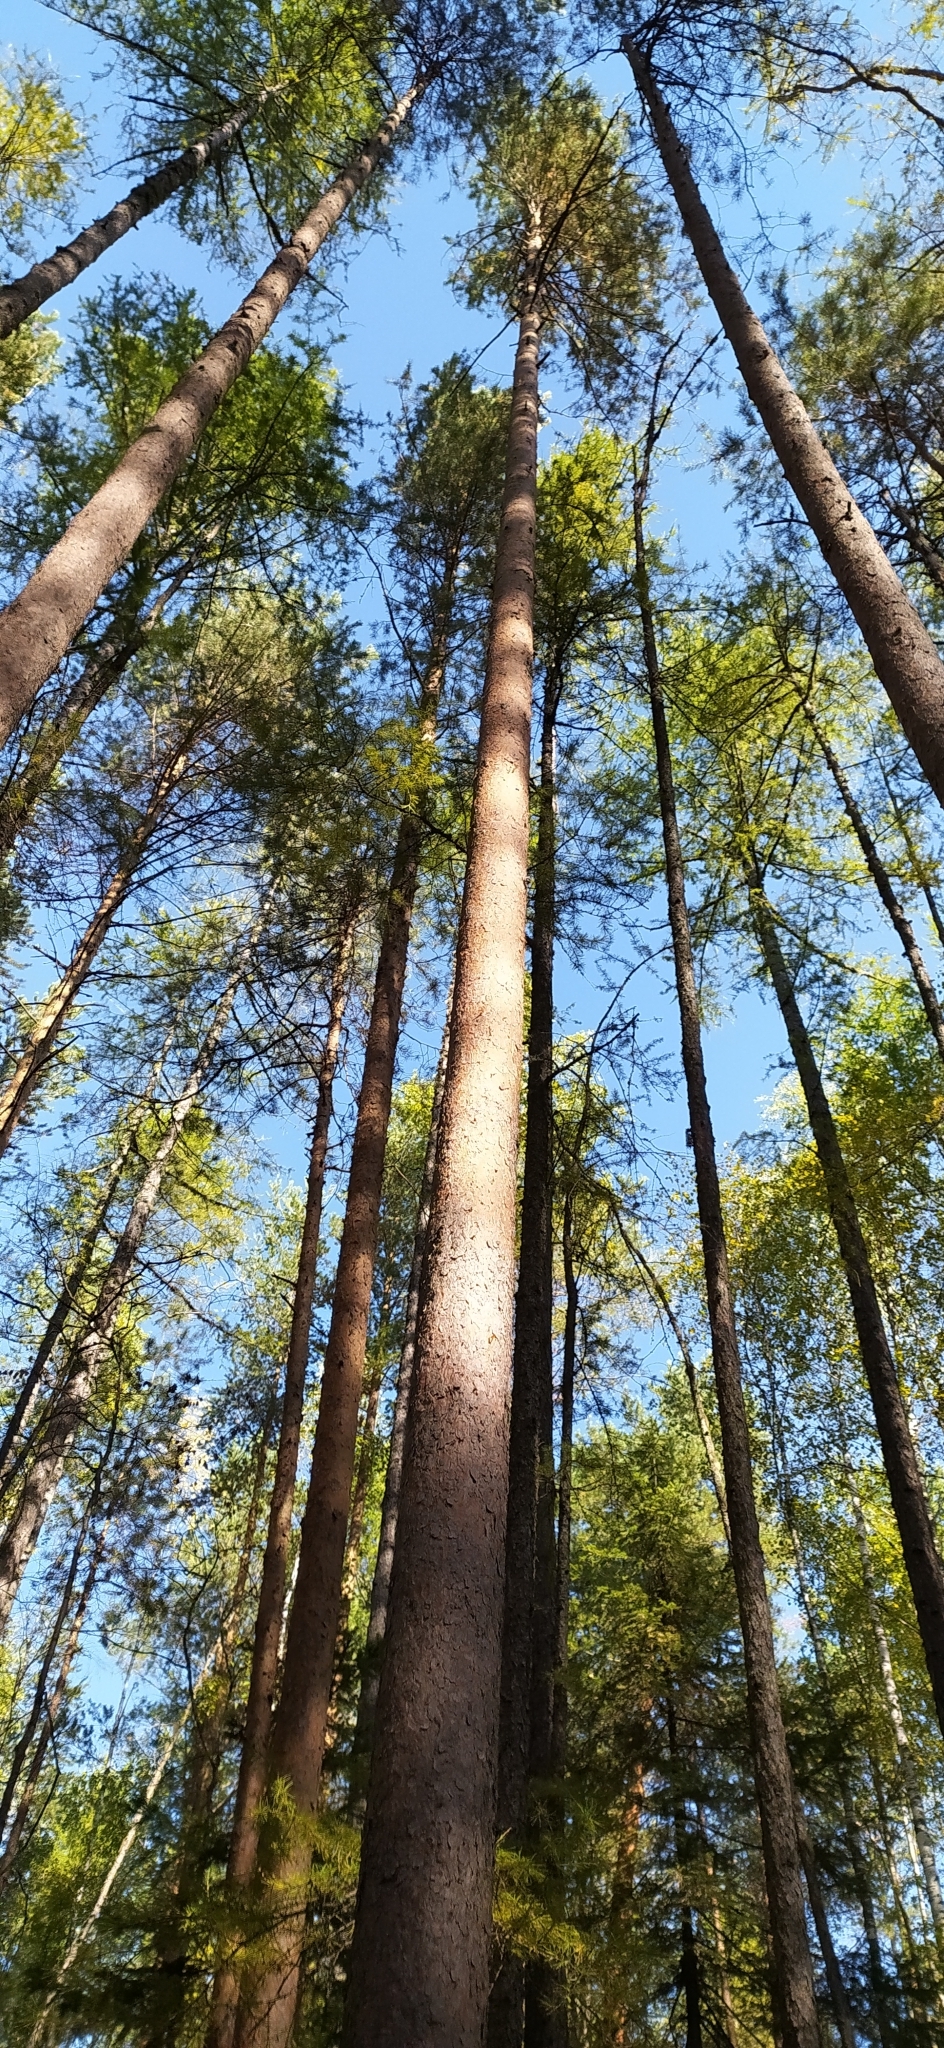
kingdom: Plantae
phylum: Tracheophyta
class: Pinopsida
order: Pinales
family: Pinaceae
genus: Pinus
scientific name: Pinus sylvestris
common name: Scots pine
